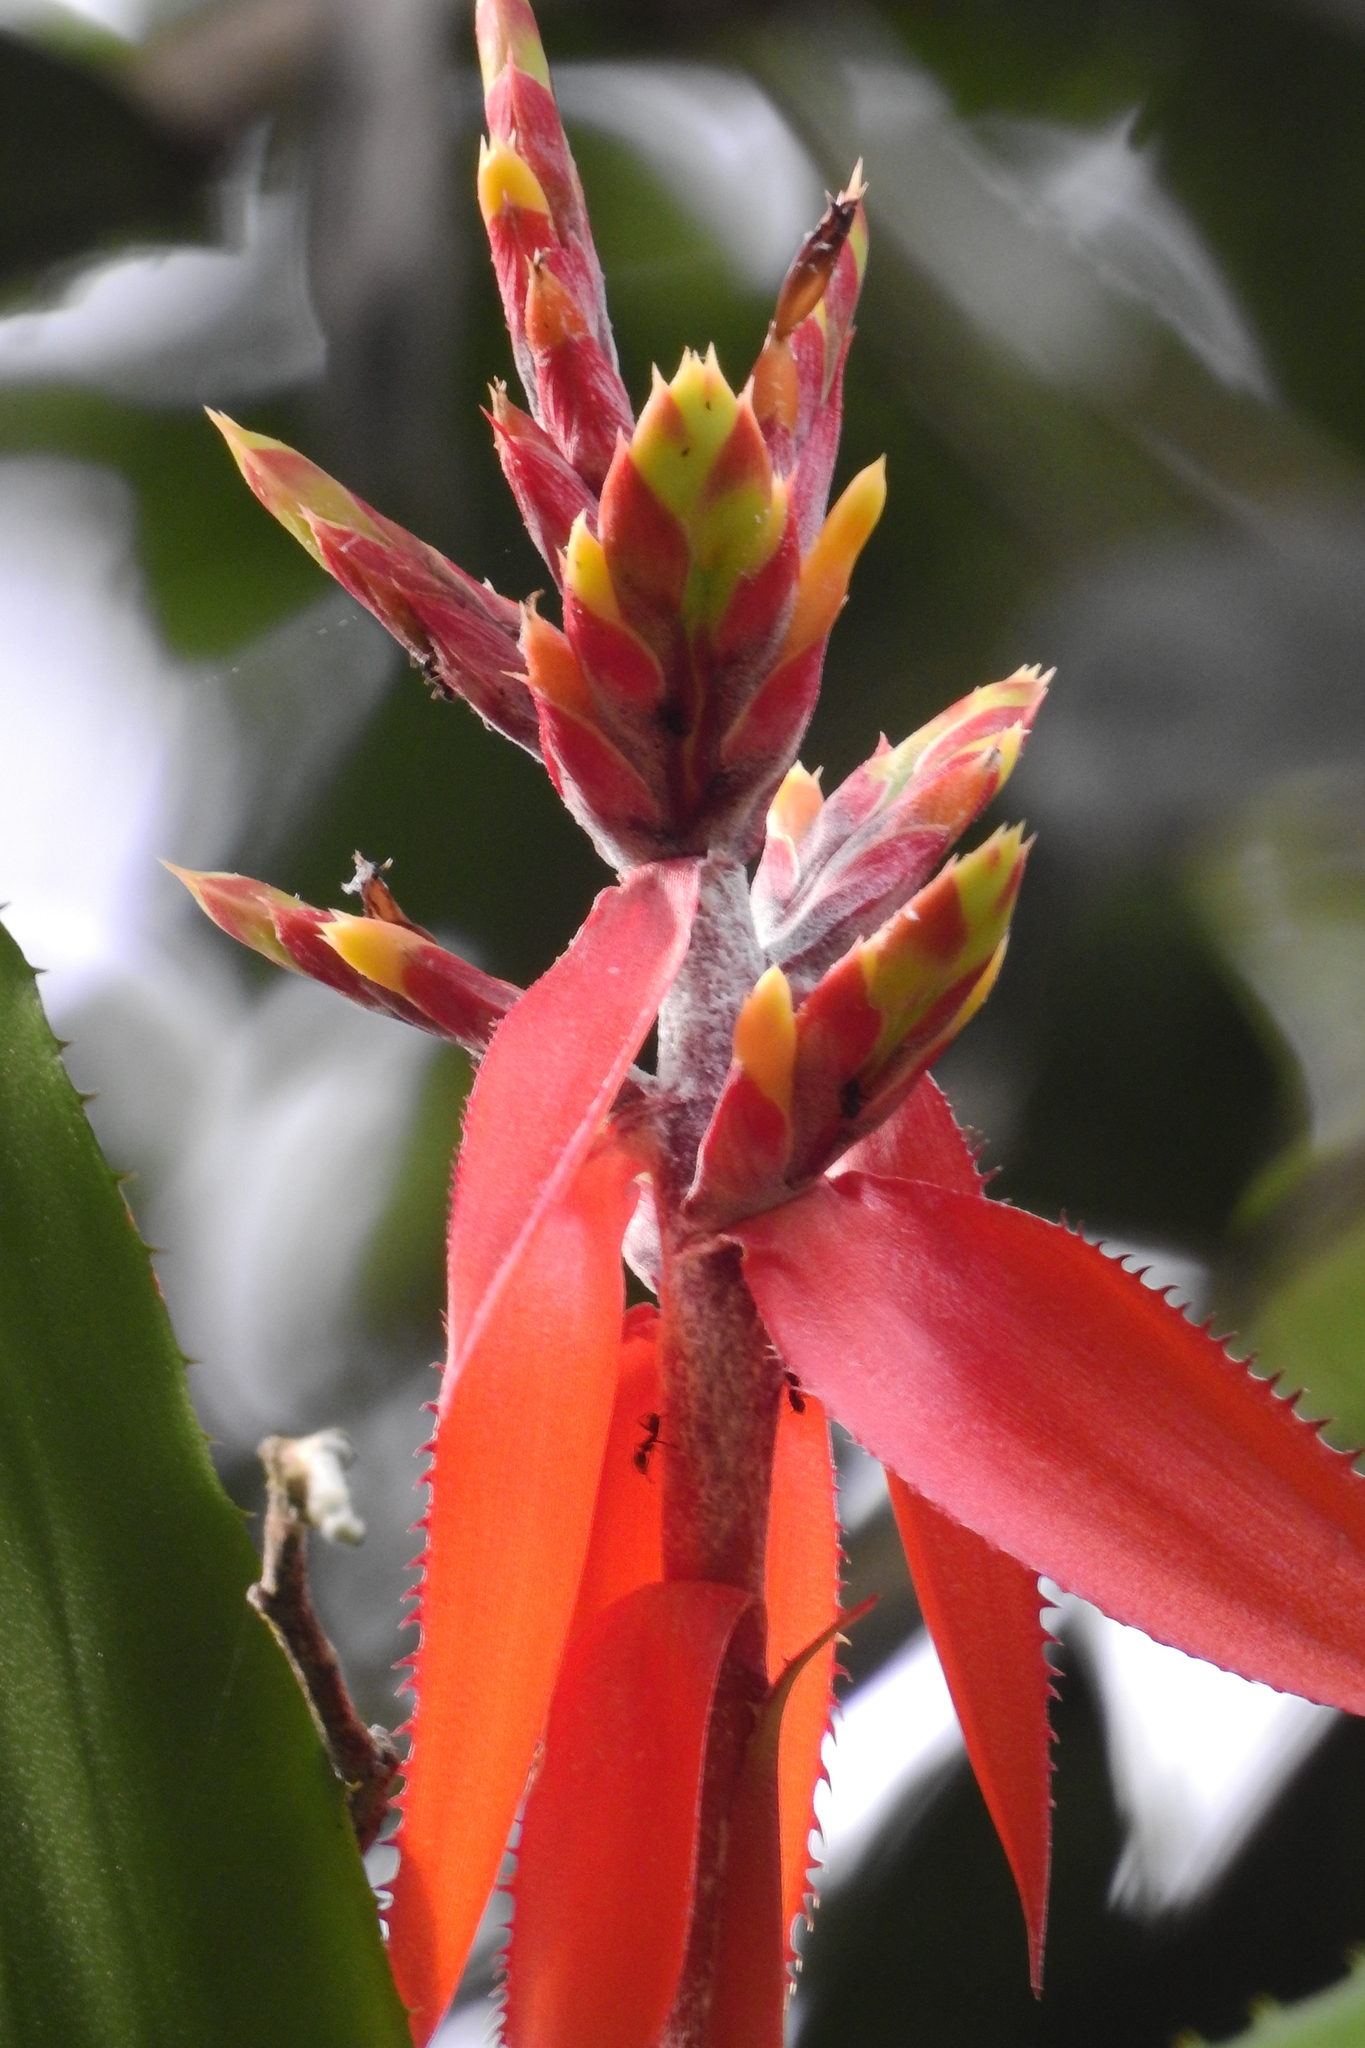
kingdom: Plantae
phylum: Tracheophyta
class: Liliopsida
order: Poales
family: Bromeliaceae
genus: Aechmea
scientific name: Aechmea tillandsioides
